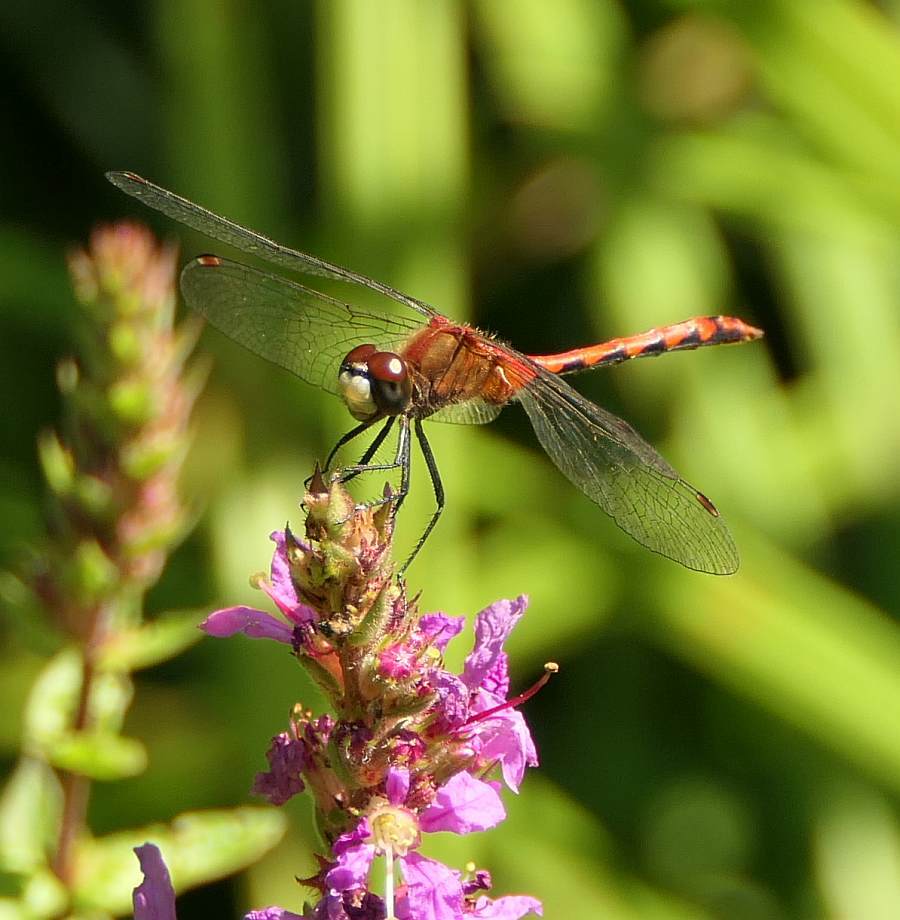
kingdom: Animalia
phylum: Arthropoda
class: Insecta
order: Odonata
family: Libellulidae
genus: Sympetrum
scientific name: Sympetrum obtrusum
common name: White-faced meadowhawk
